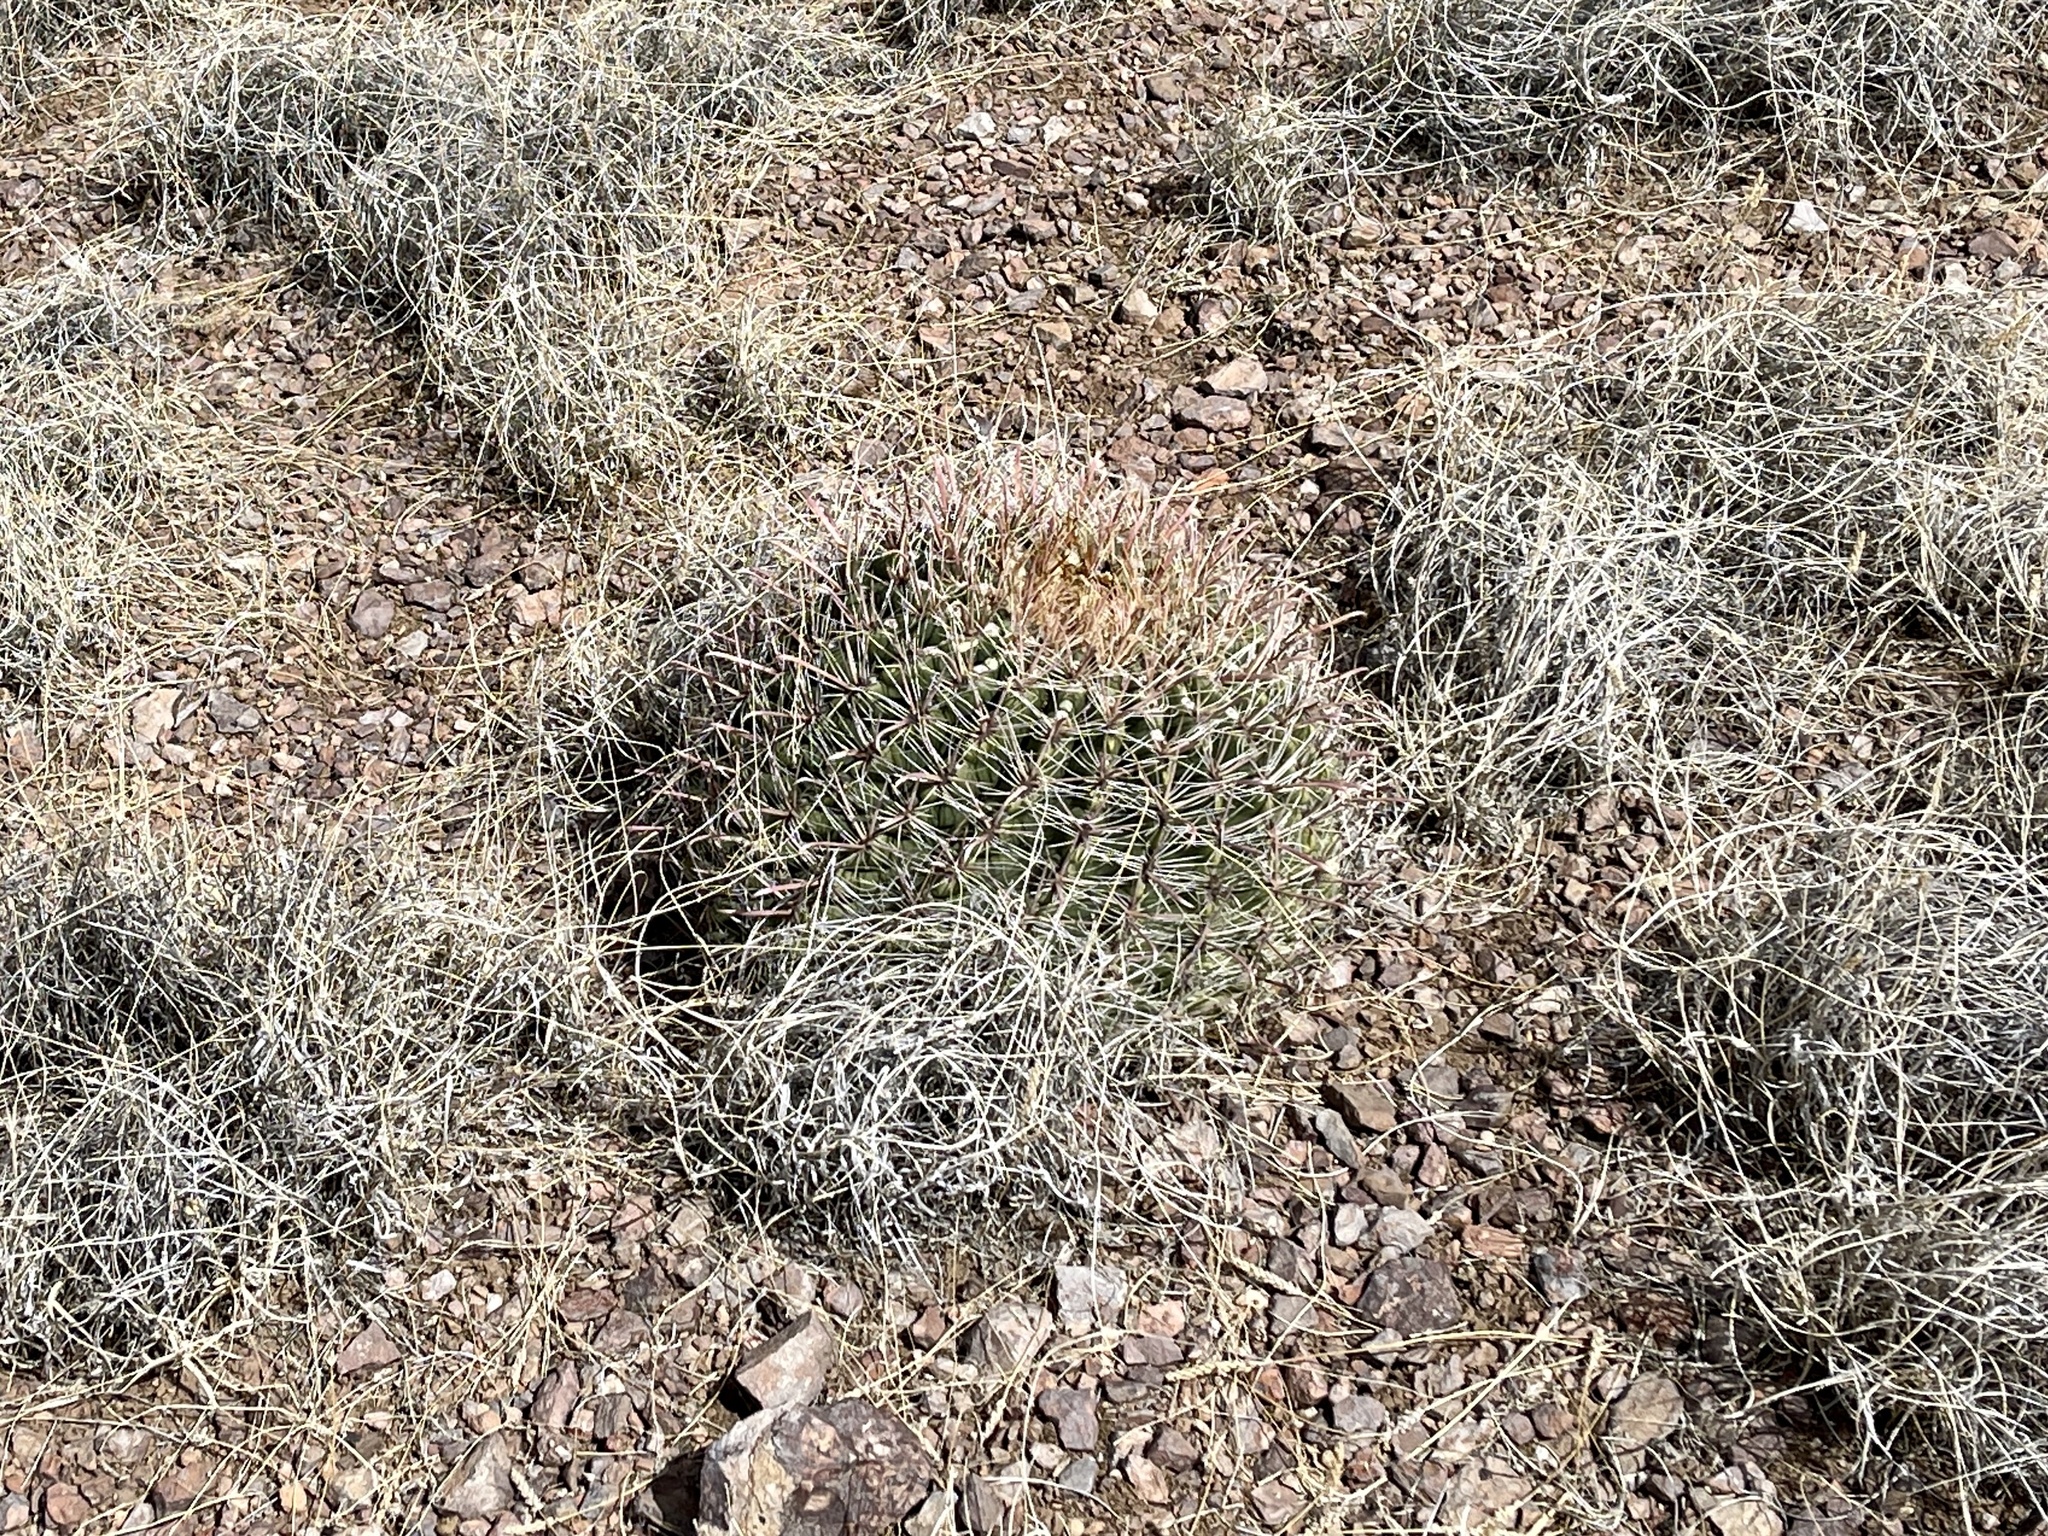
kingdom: Plantae
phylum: Tracheophyta
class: Magnoliopsida
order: Caryophyllales
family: Cactaceae
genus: Ferocactus
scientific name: Ferocactus wislizeni
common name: Candy barrel cactus
